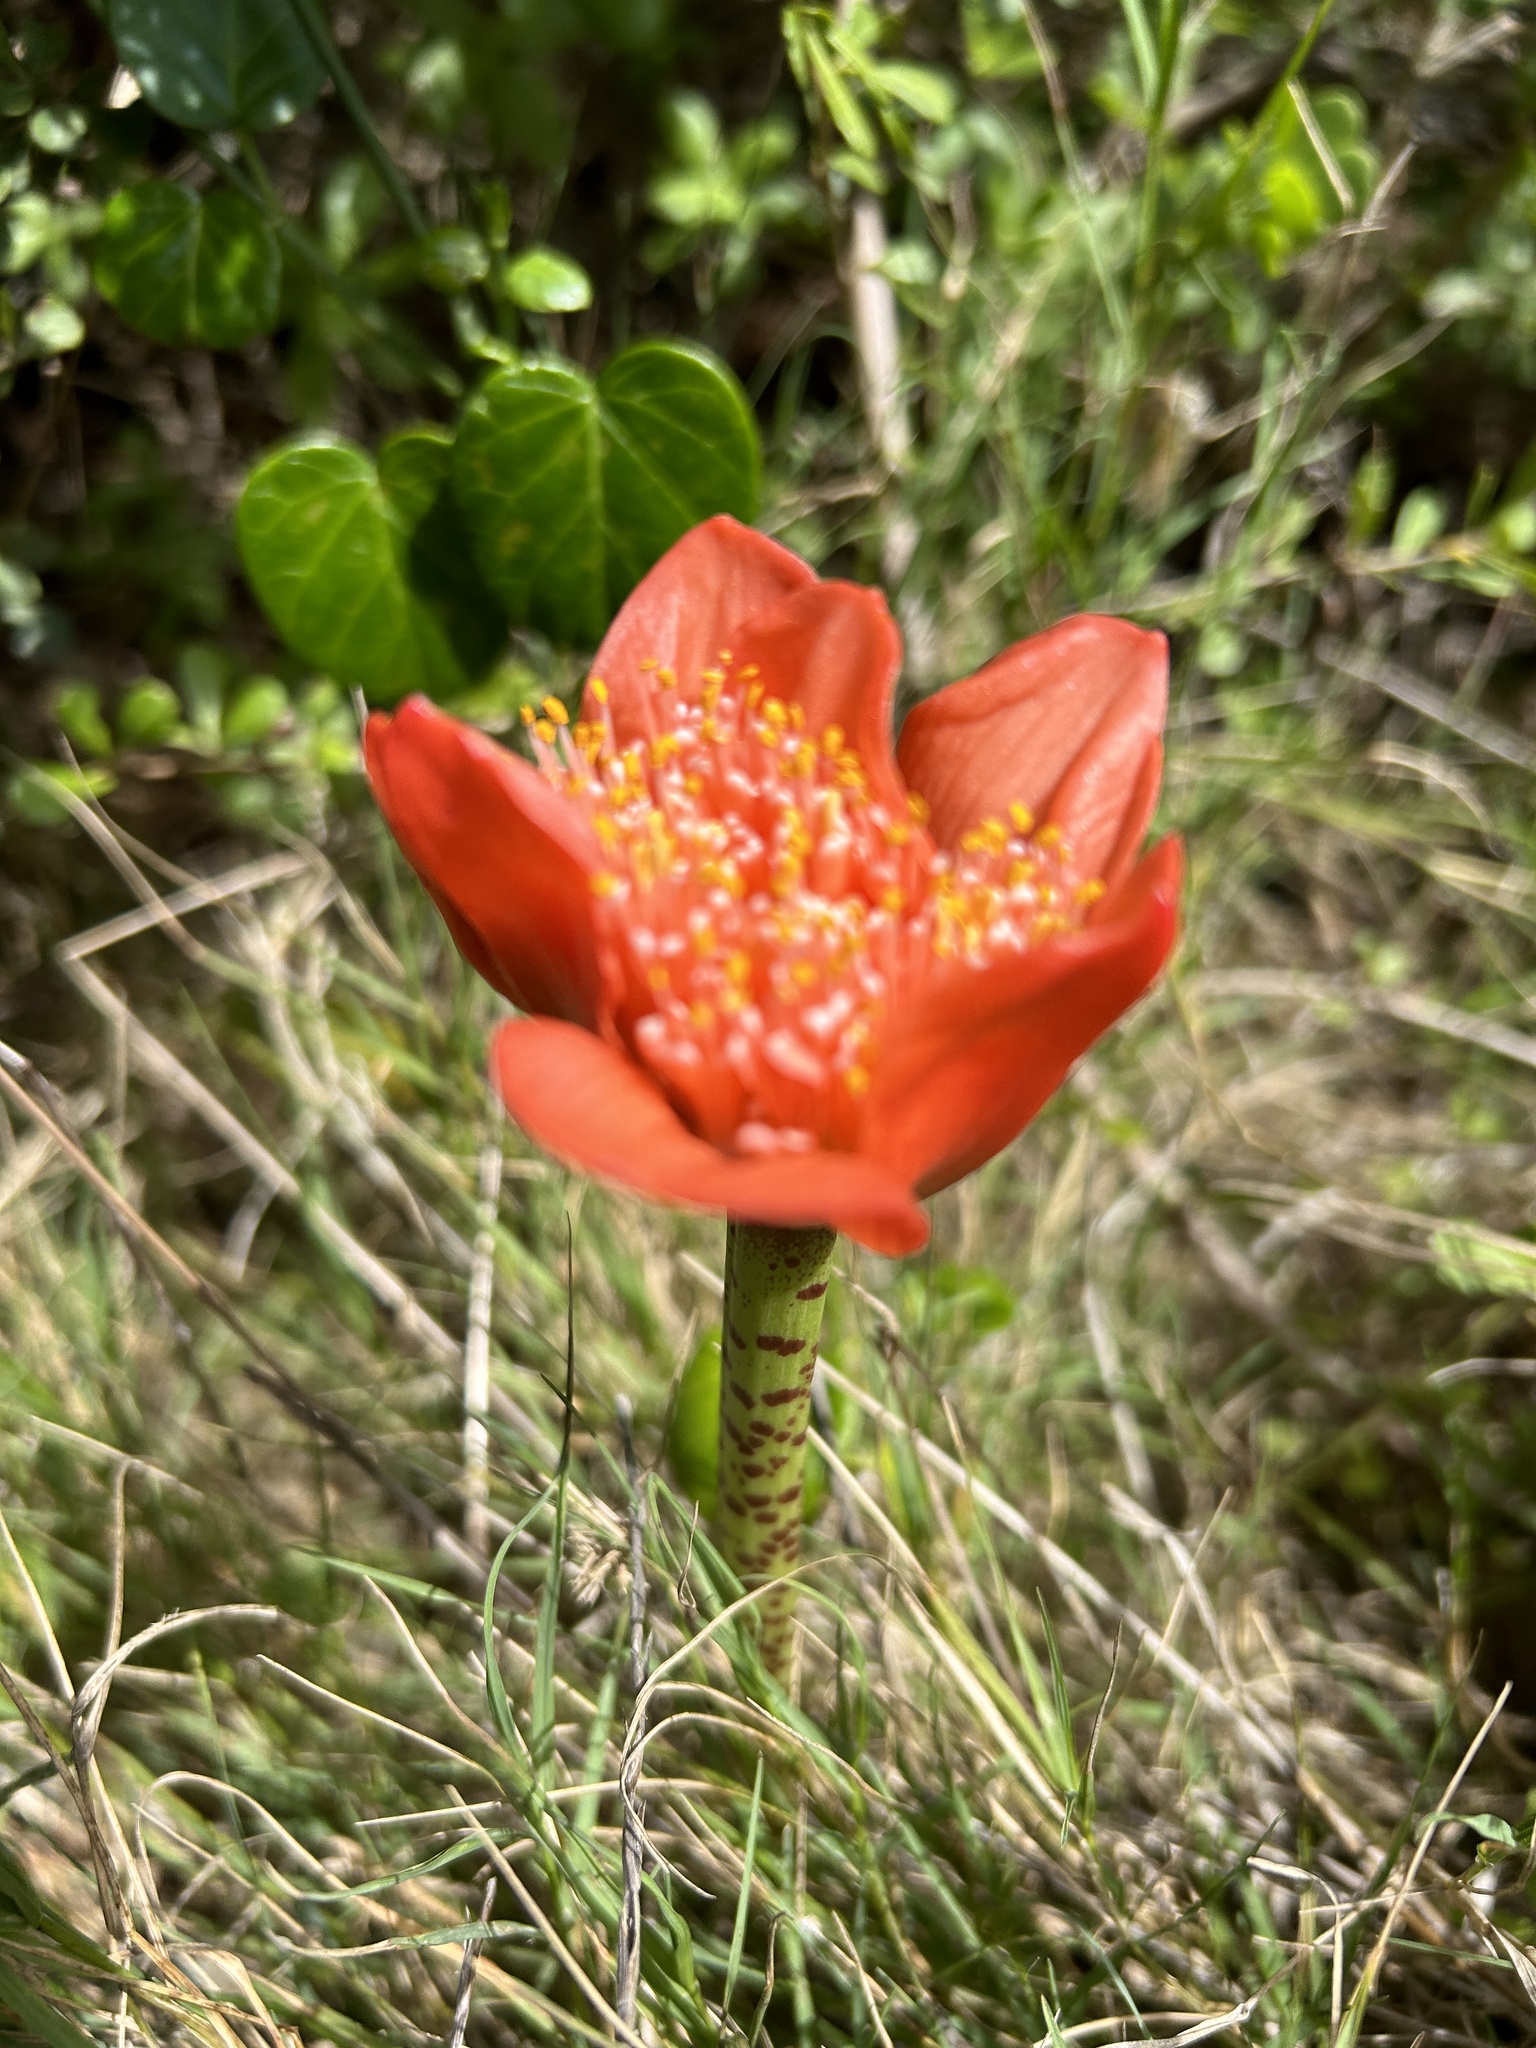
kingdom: Plantae
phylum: Tracheophyta
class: Liliopsida
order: Asparagales
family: Amaryllidaceae
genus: Haemanthus
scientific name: Haemanthus coccineus
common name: Cape-tulip
